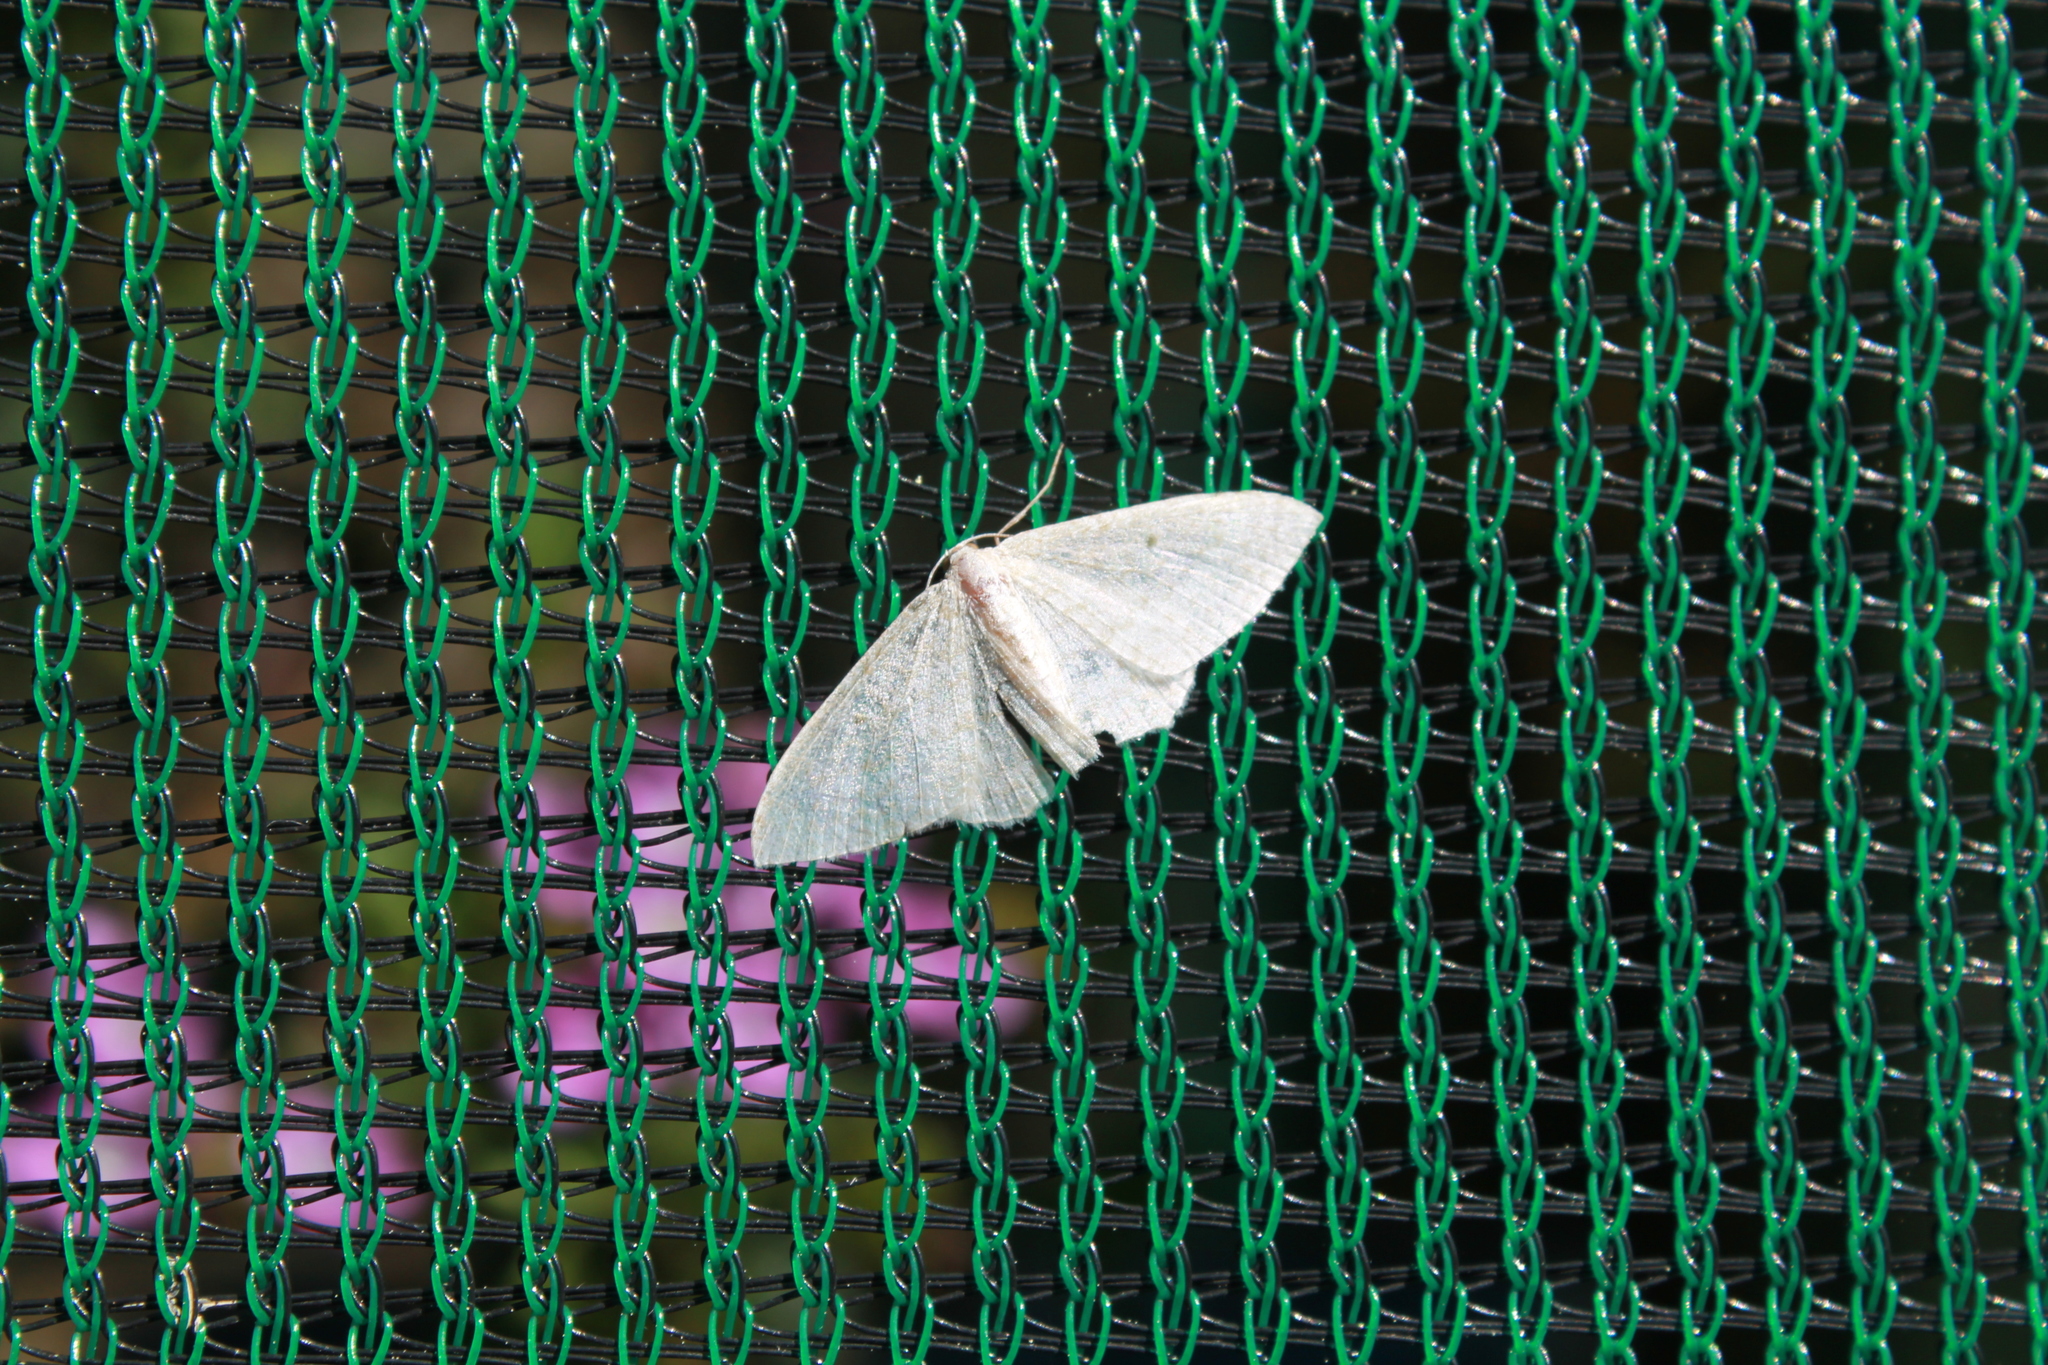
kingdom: Animalia
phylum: Arthropoda
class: Insecta
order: Lepidoptera
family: Geometridae
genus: Poecilasthena
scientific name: Poecilasthena pulchraria
